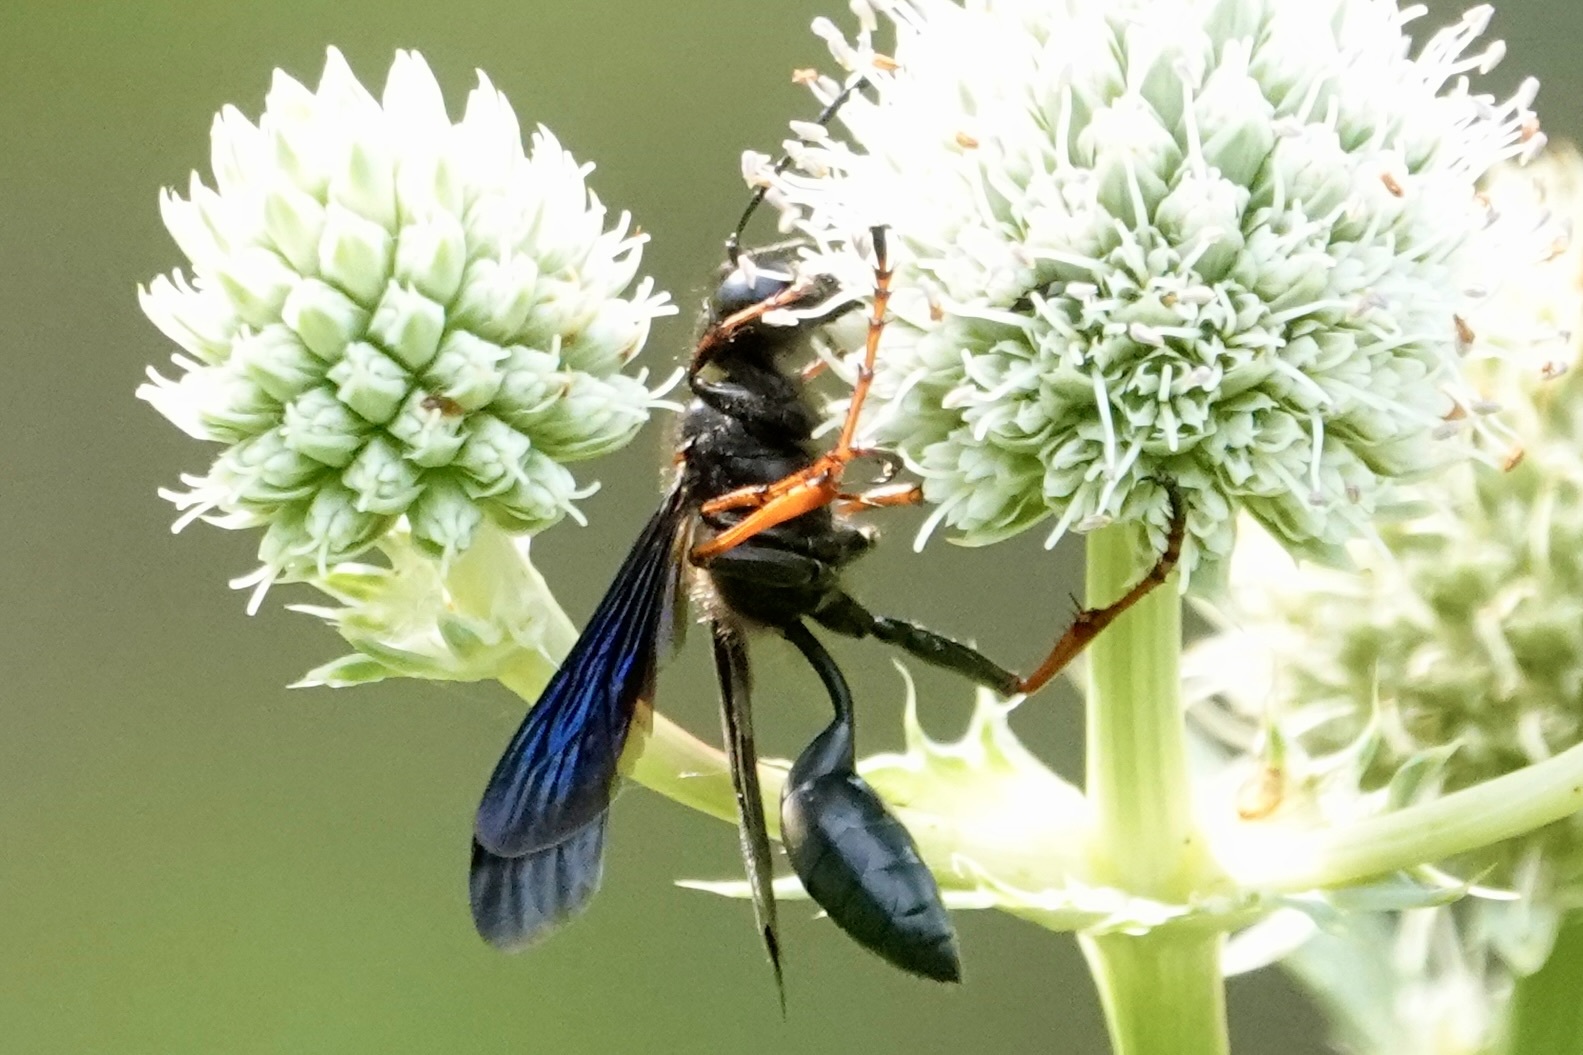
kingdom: Animalia
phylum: Arthropoda
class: Insecta
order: Hymenoptera
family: Sphecidae
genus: Isodontia
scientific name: Isodontia auripes
